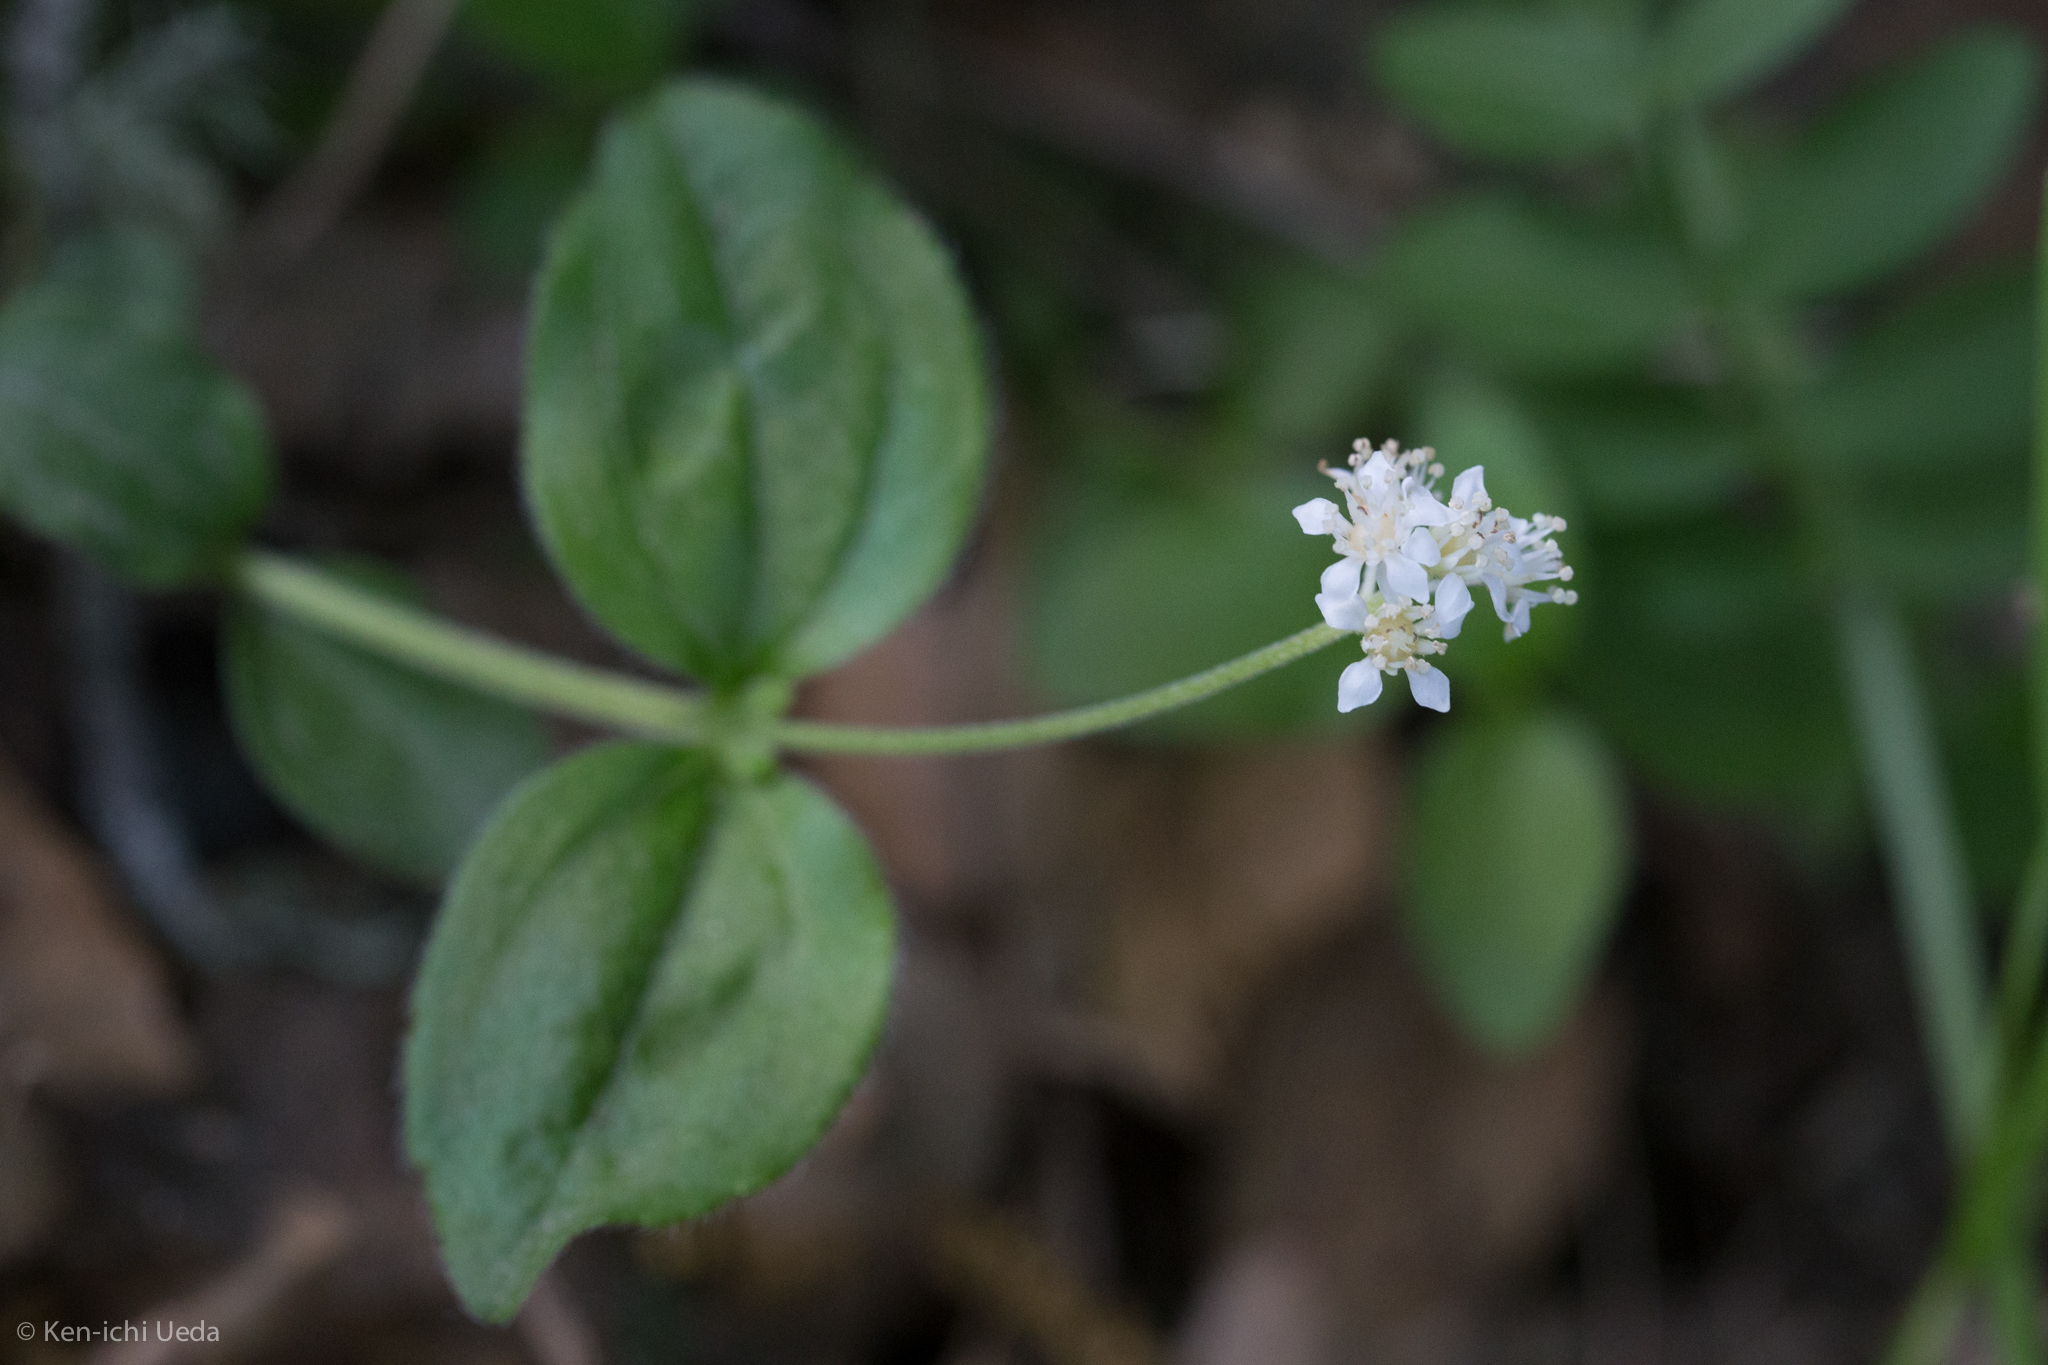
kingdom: Plantae
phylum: Tracheophyta
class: Magnoliopsida
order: Cornales
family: Hydrangeaceae
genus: Whipplea
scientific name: Whipplea modesta
